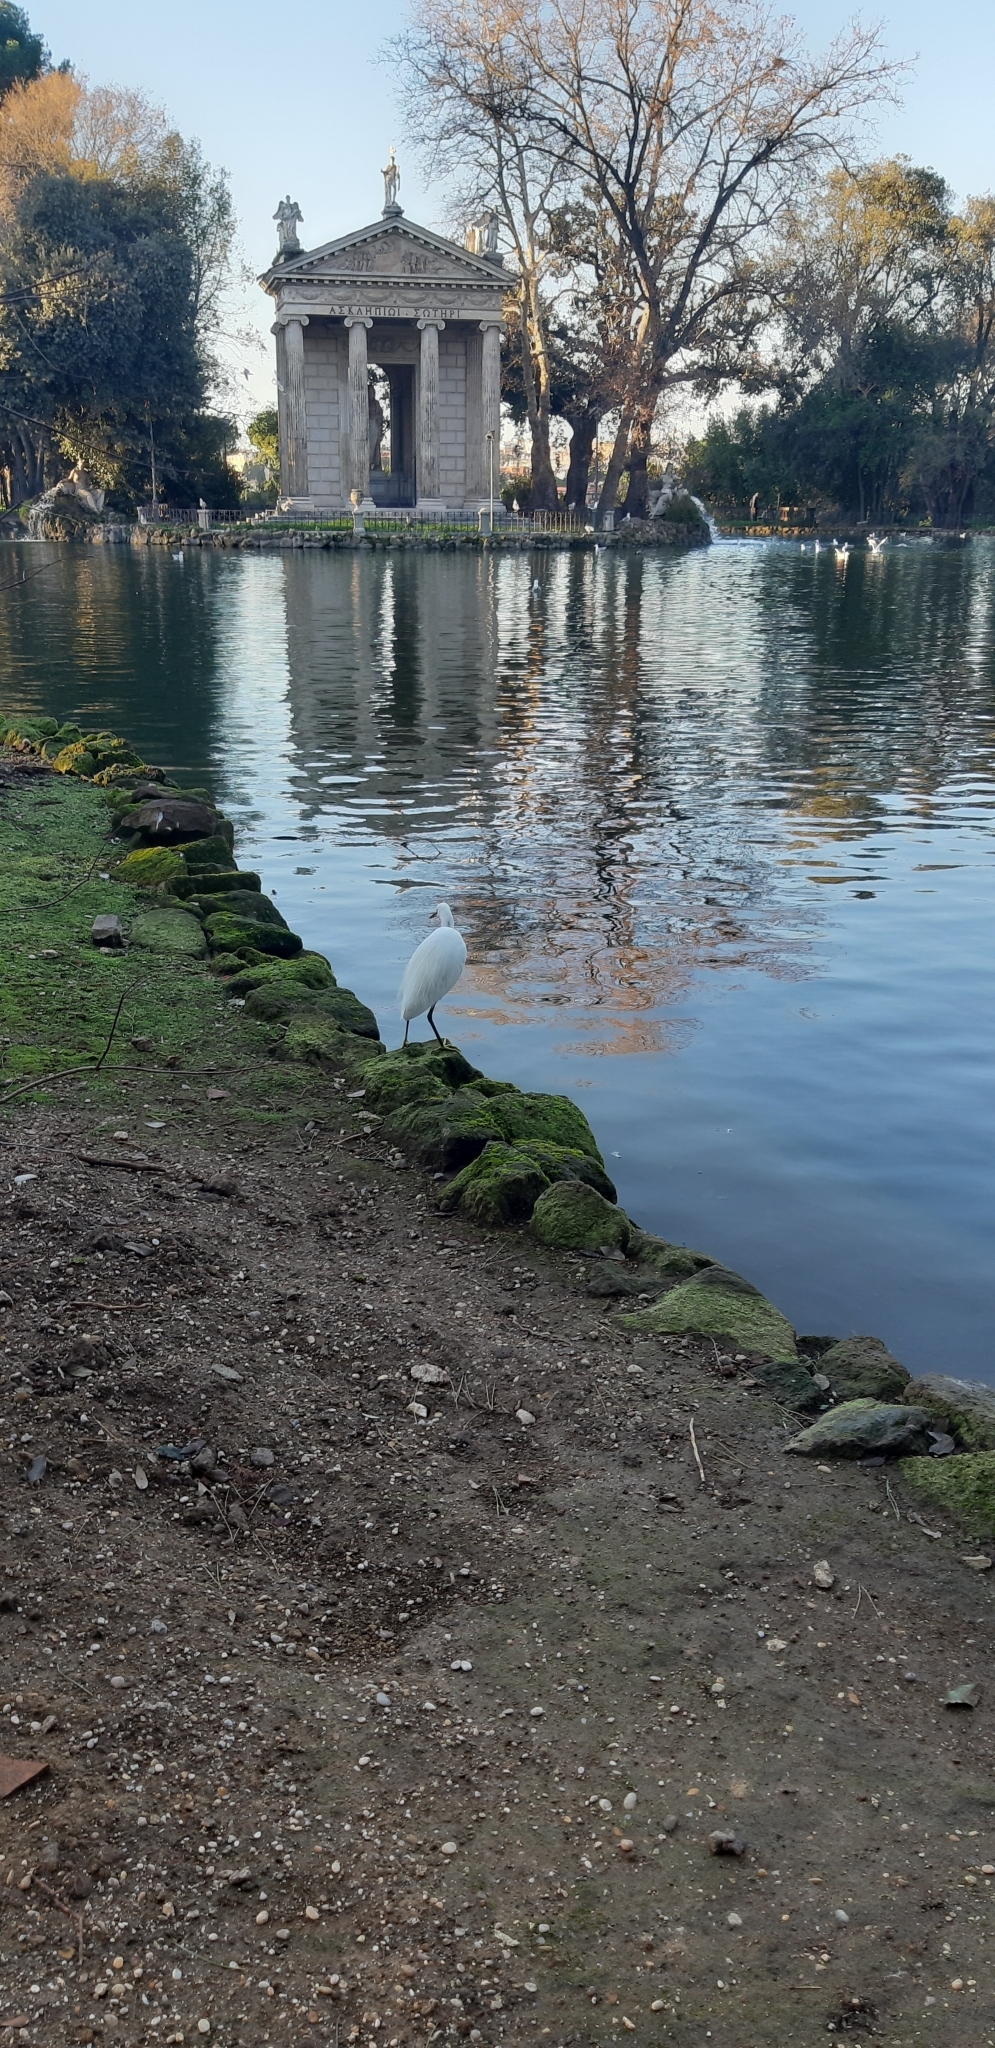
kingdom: Animalia
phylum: Chordata
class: Aves
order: Pelecaniformes
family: Ardeidae
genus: Egretta
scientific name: Egretta garzetta
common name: Little egret
